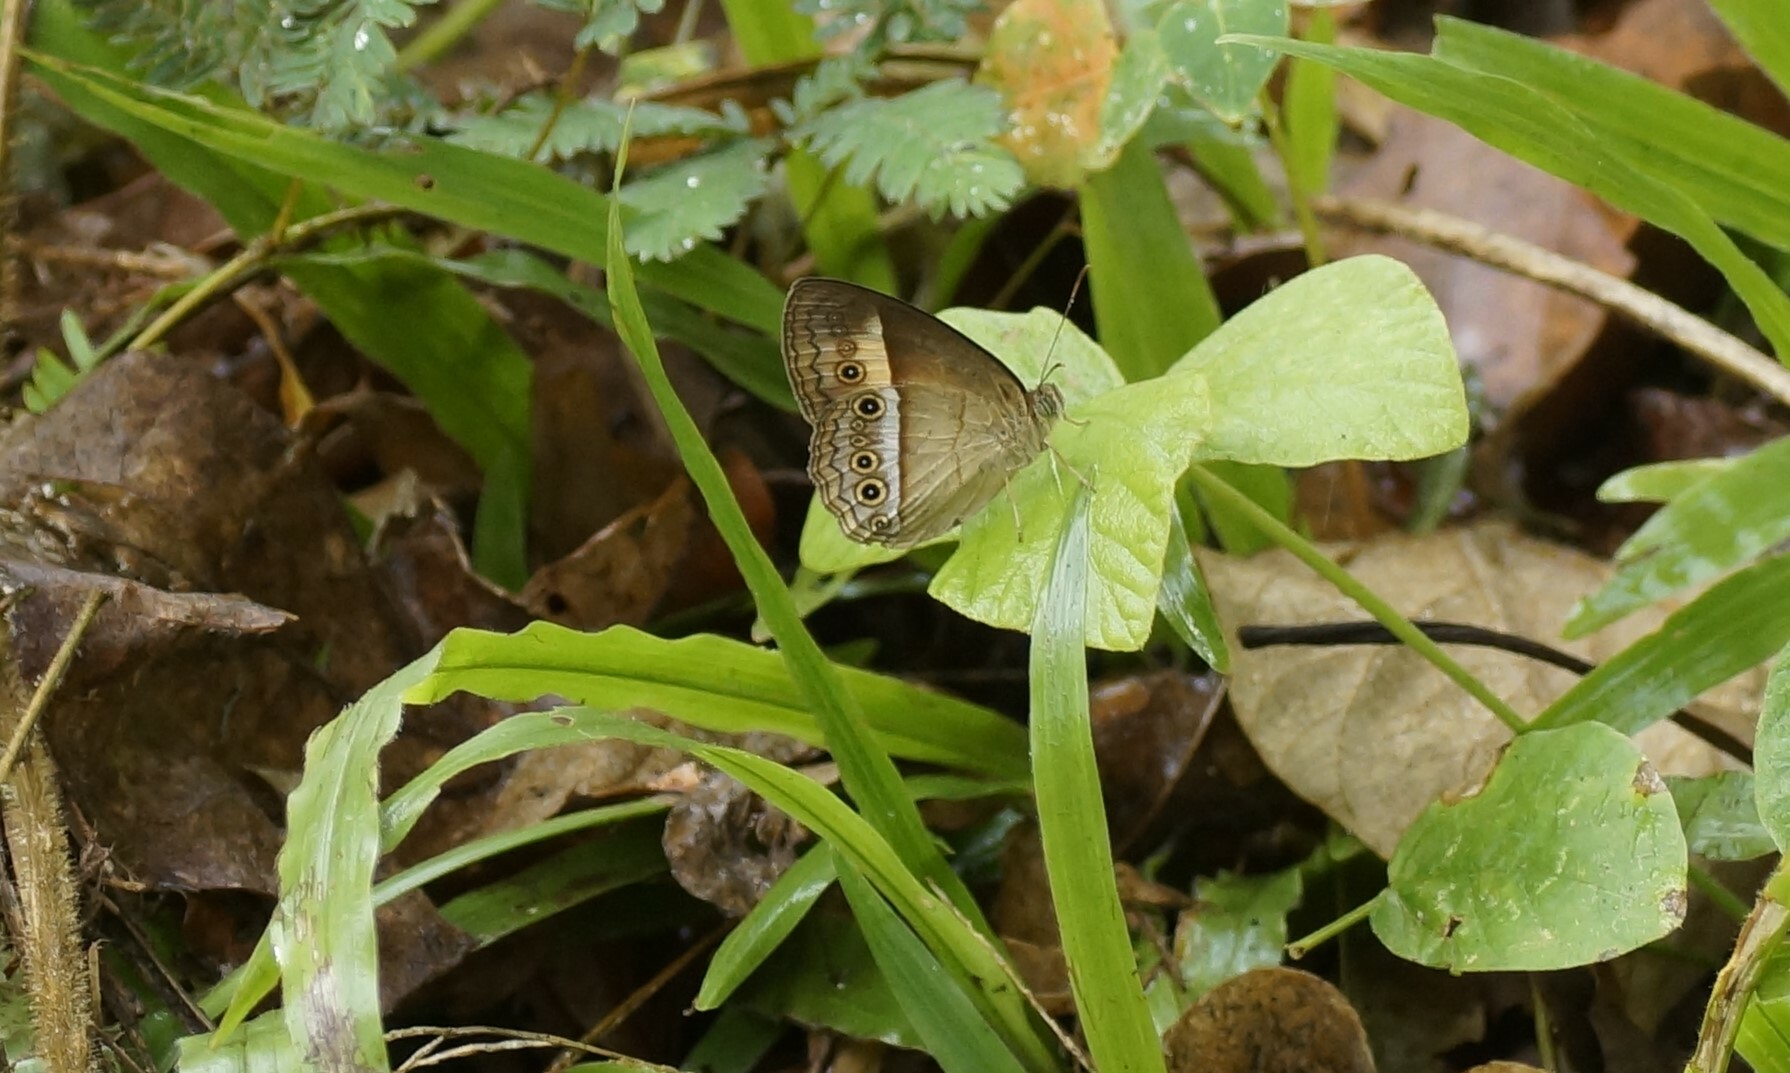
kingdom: Animalia
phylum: Arthropoda
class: Insecta
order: Lepidoptera
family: Nymphalidae
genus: Mycalesis
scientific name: Mycalesis terminus
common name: Orange bushbrown
